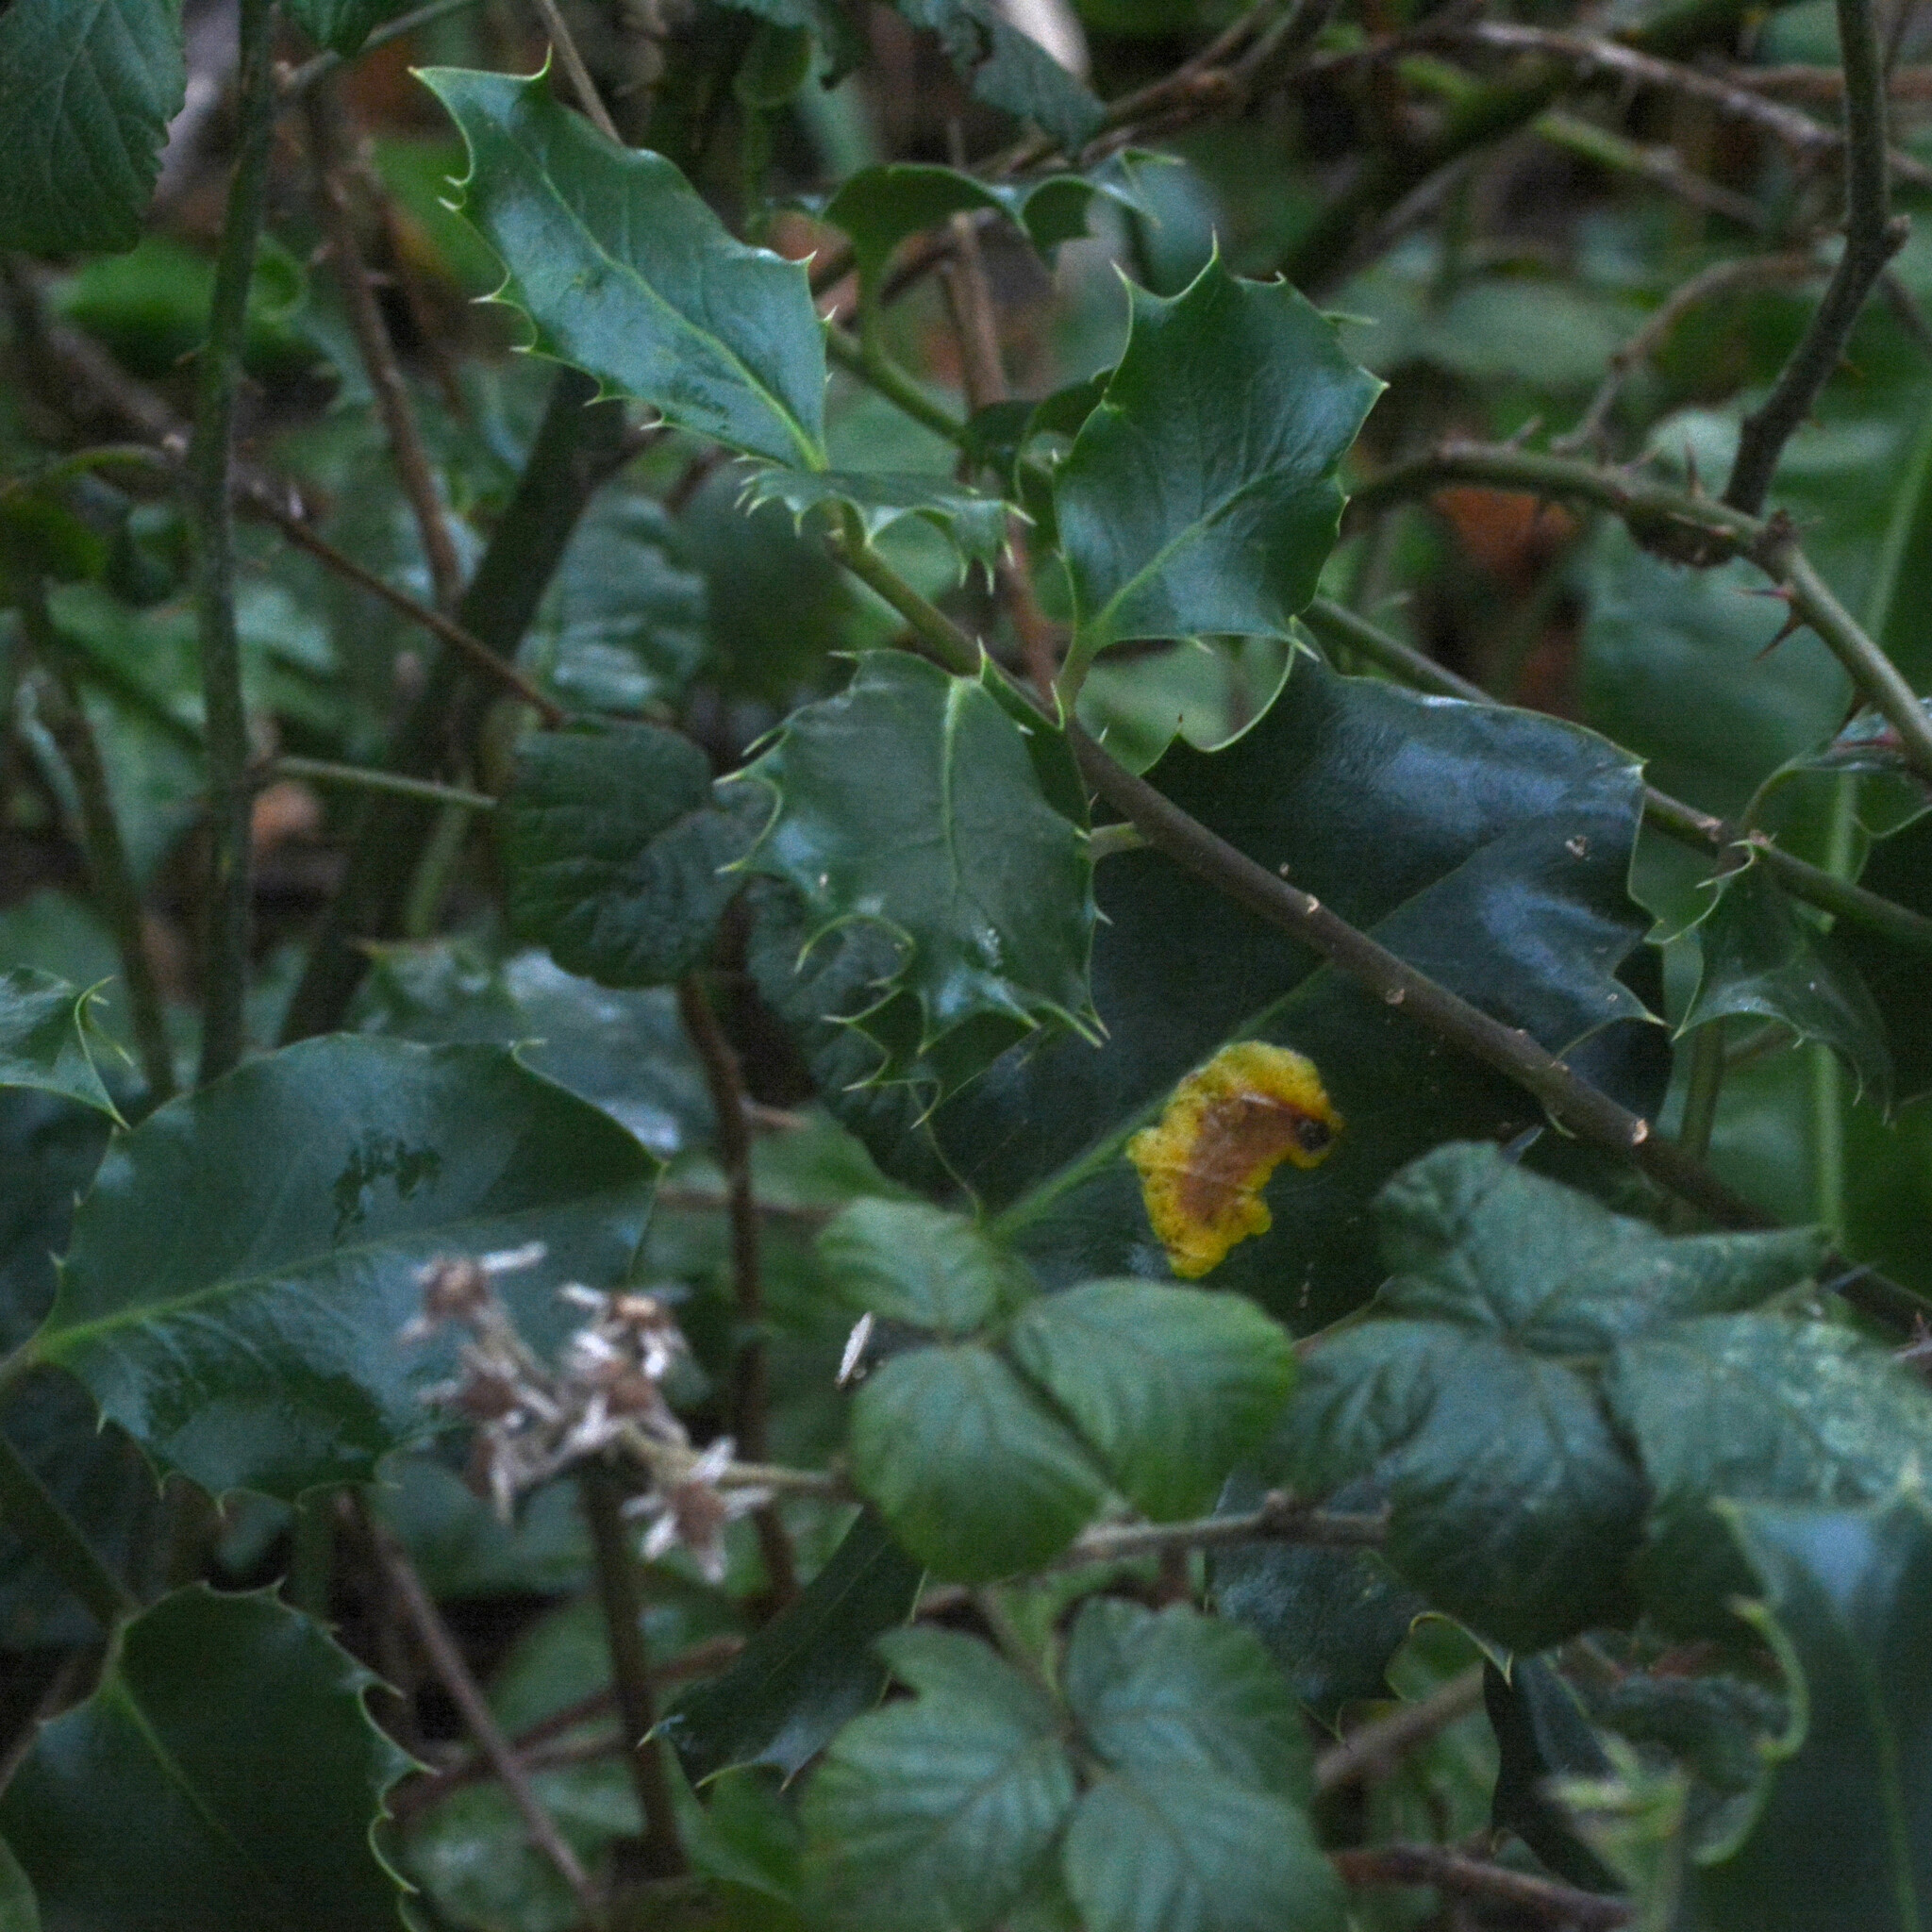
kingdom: Plantae
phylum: Tracheophyta
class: Magnoliopsida
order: Aquifoliales
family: Aquifoliaceae
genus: Ilex
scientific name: Ilex aquifolium
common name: English holly
